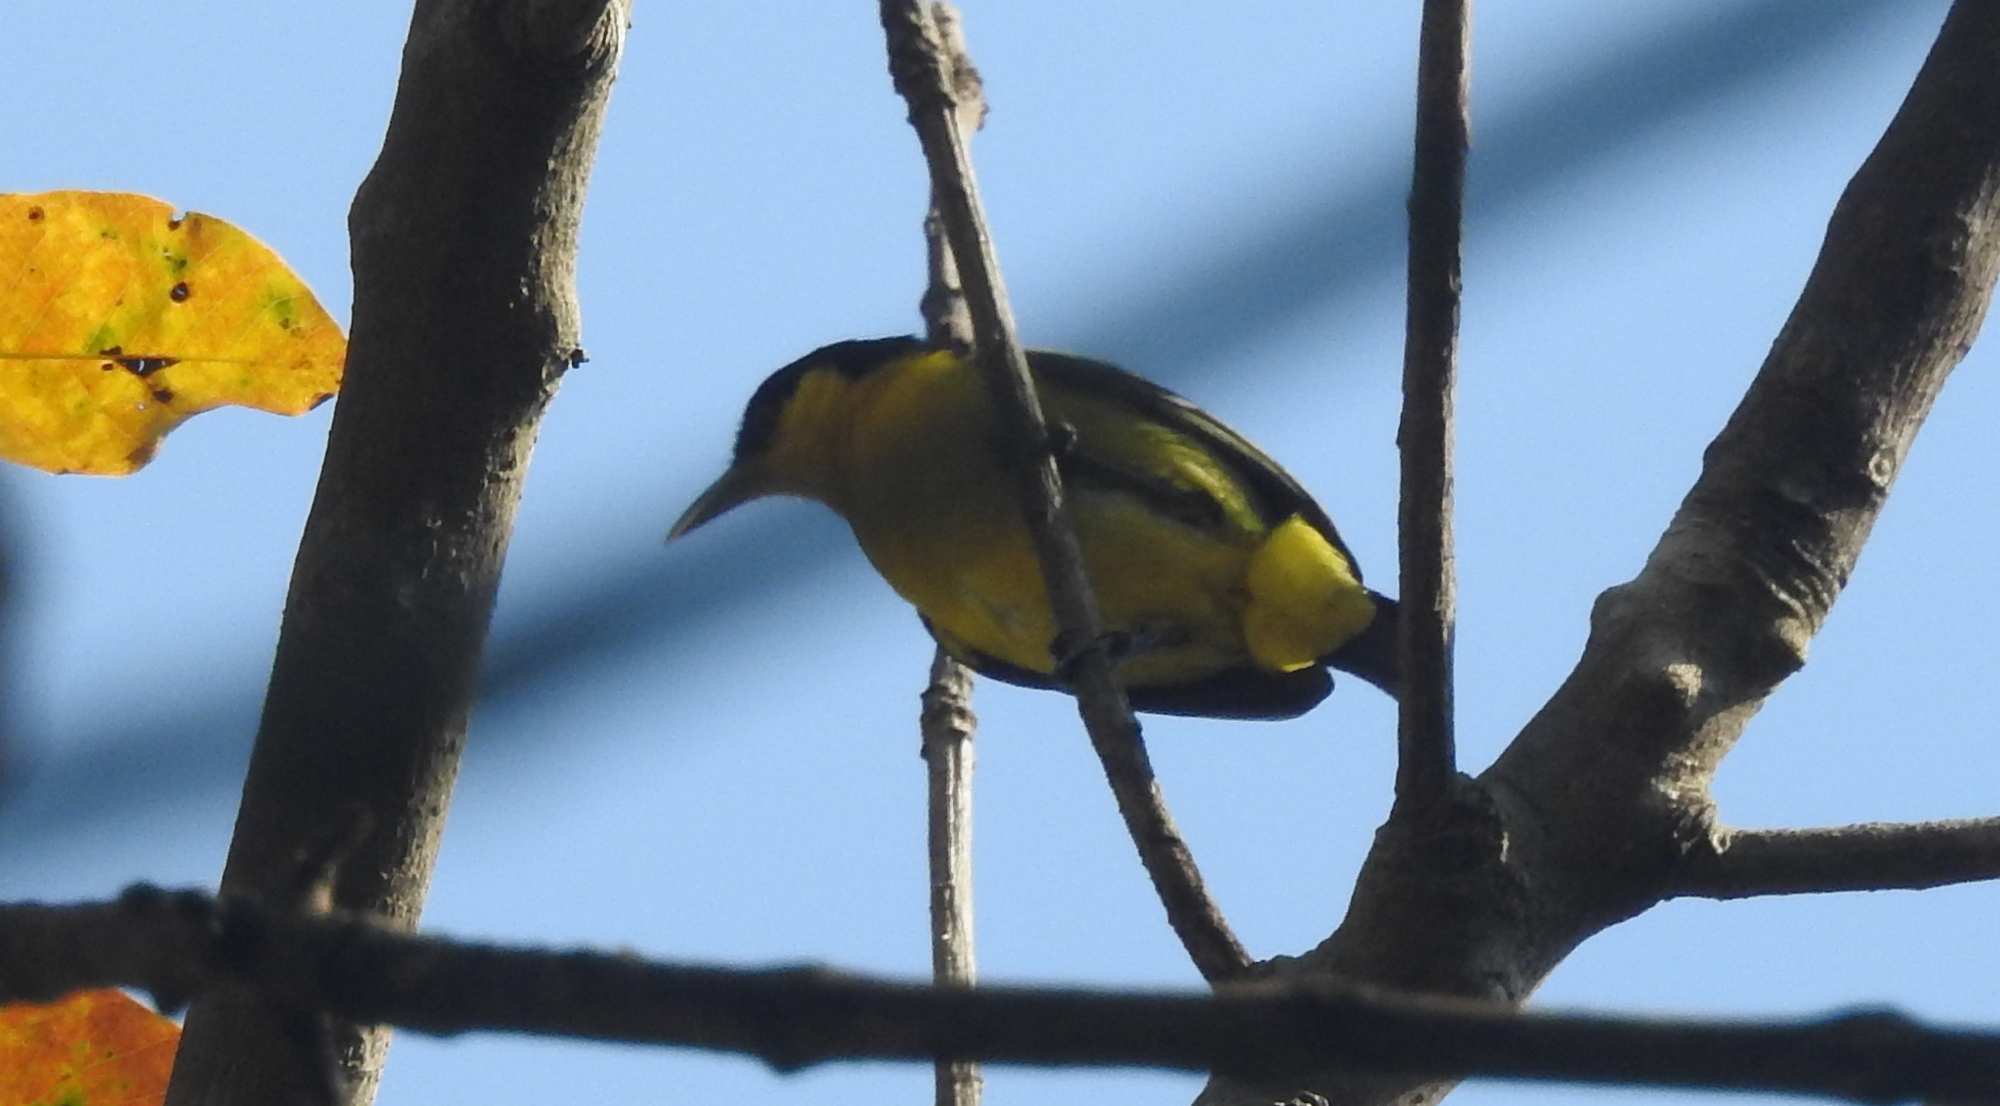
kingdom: Animalia
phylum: Chordata
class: Aves
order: Passeriformes
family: Aegithinidae
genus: Aegithina
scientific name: Aegithina tiphia
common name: Common iora
